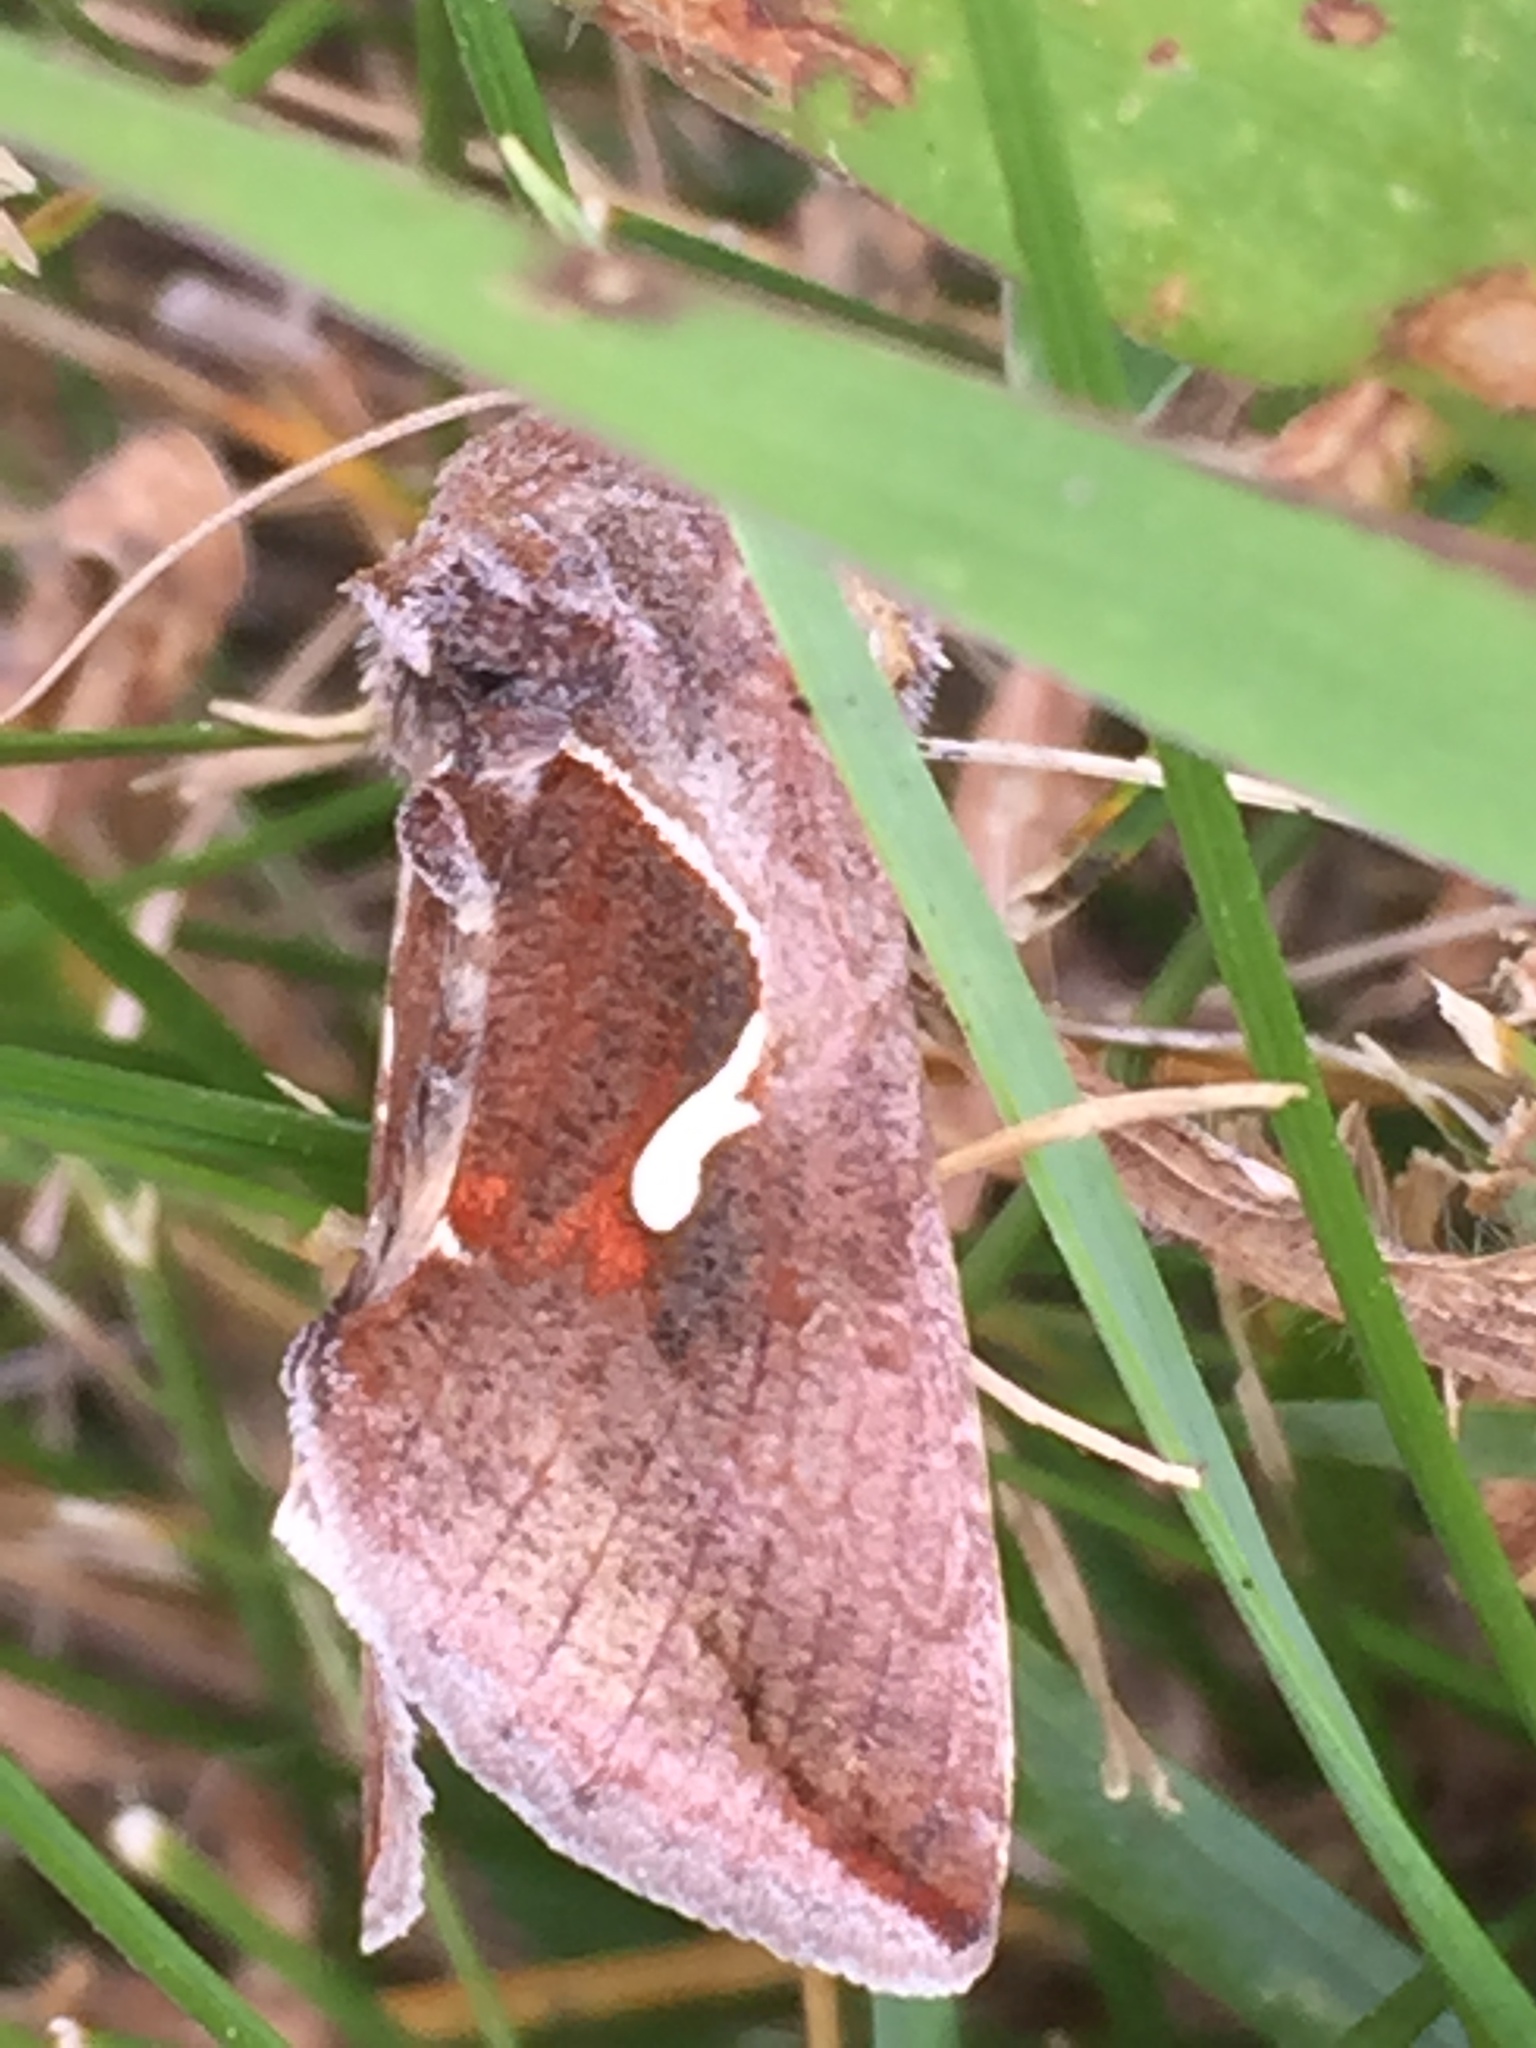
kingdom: Animalia
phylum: Arthropoda
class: Insecta
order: Lepidoptera
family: Noctuidae
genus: Anagrapha
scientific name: Anagrapha falcifera
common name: Celery looper
